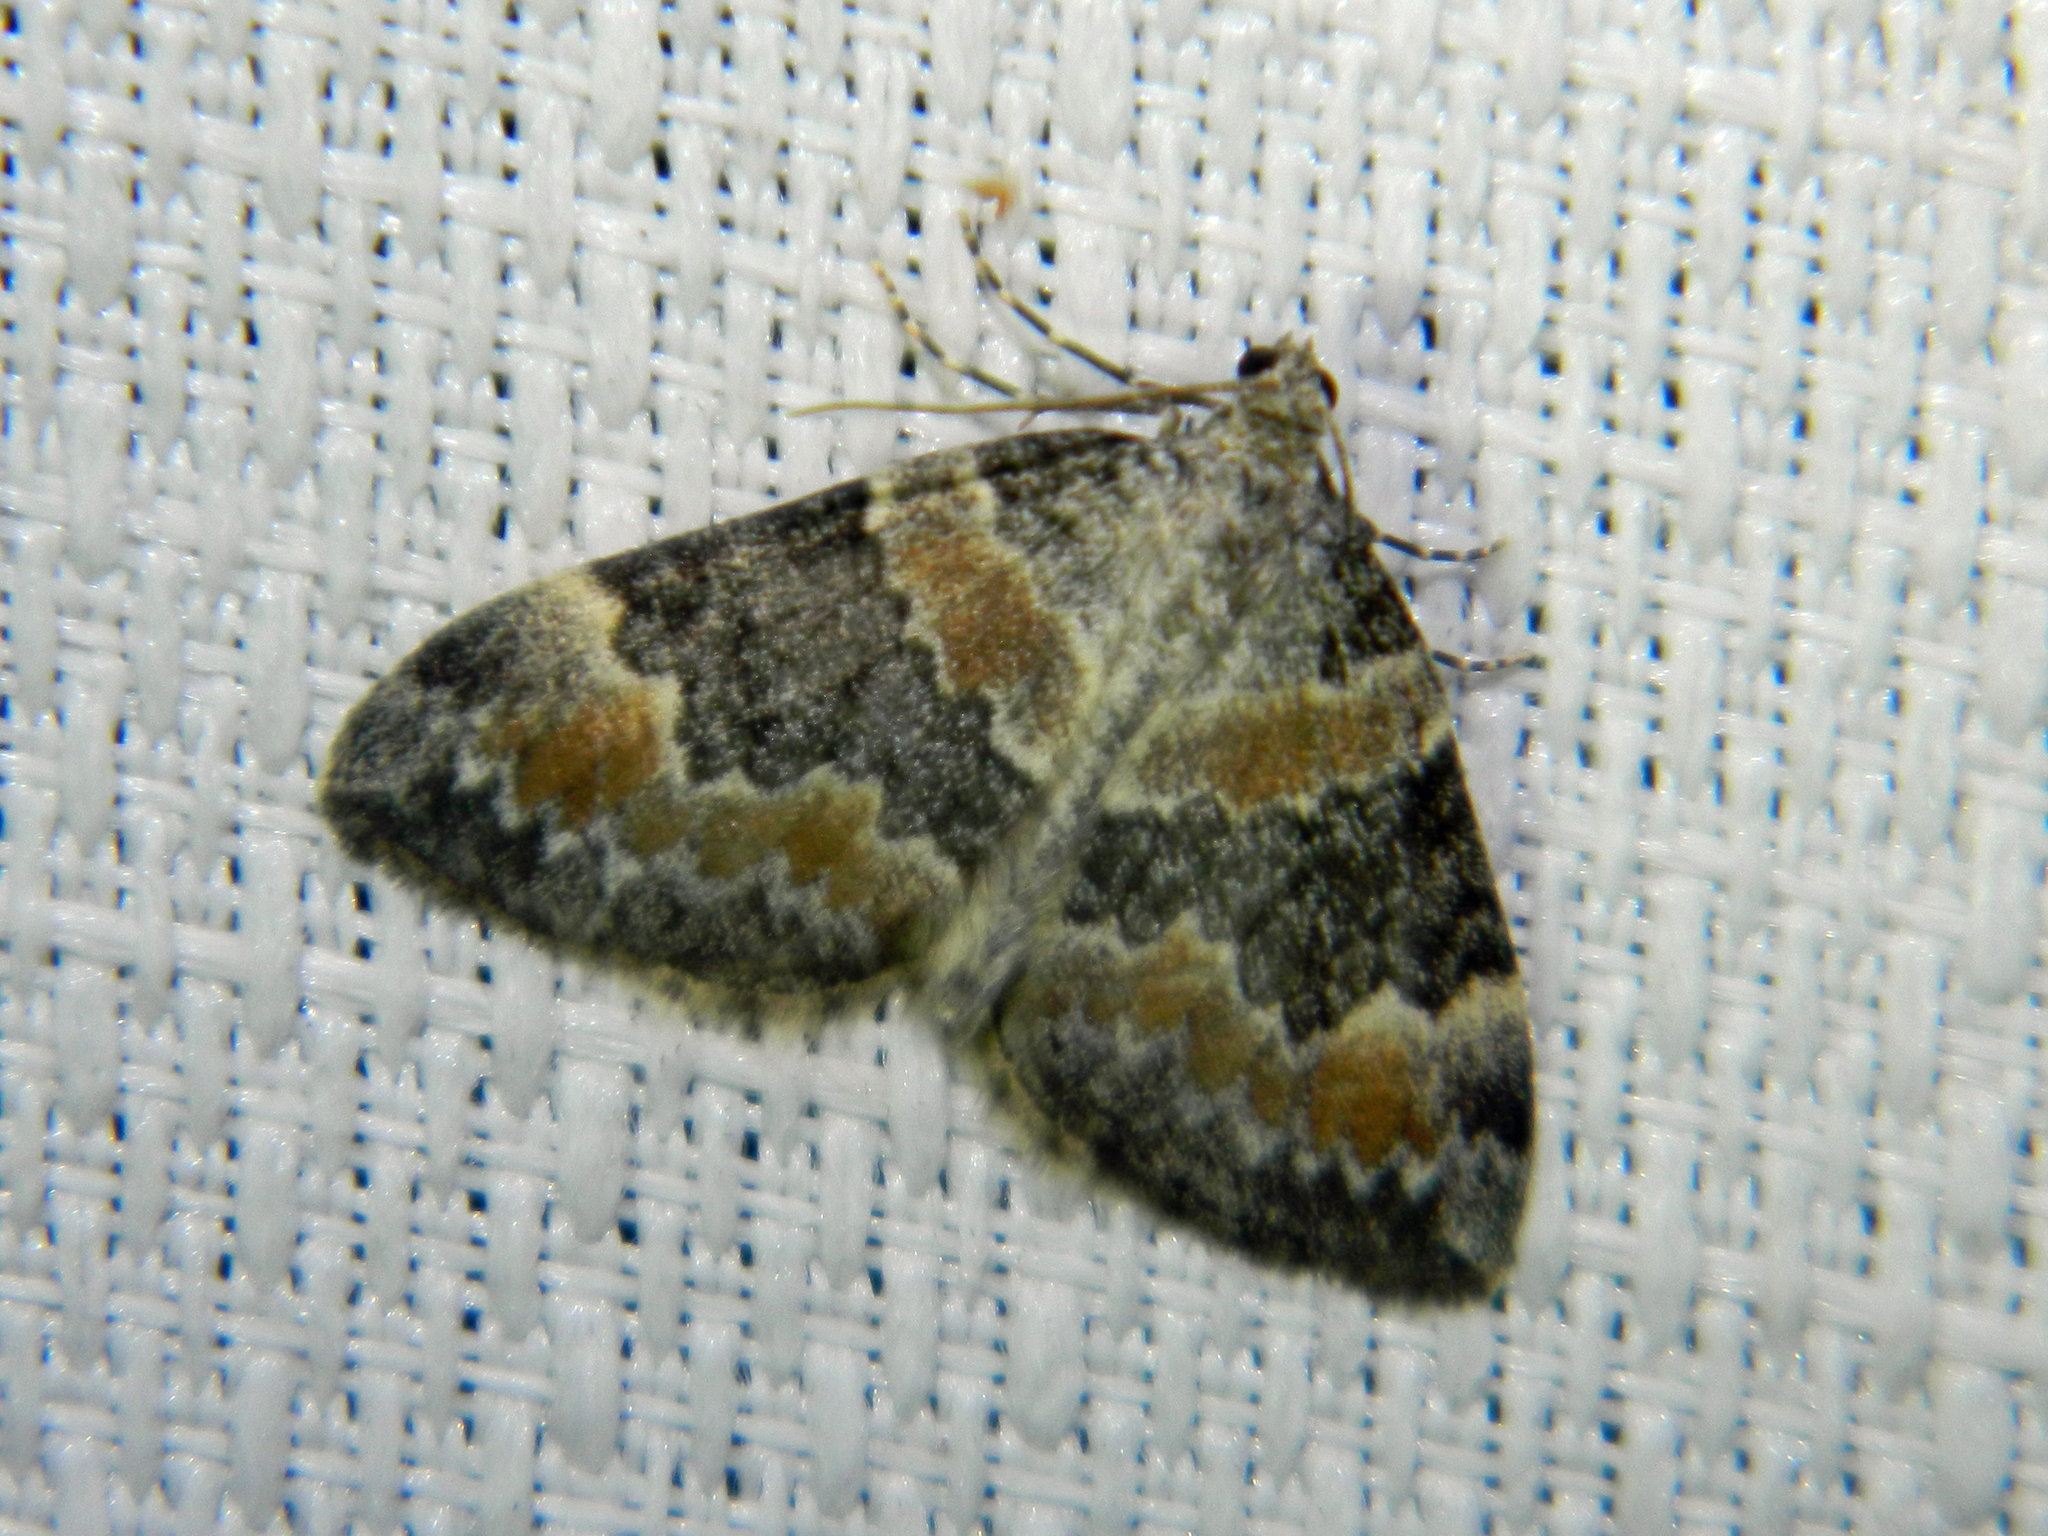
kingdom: Animalia
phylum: Arthropoda
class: Insecta
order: Lepidoptera
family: Geometridae
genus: Dysstroma
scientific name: Dysstroma brunneata
